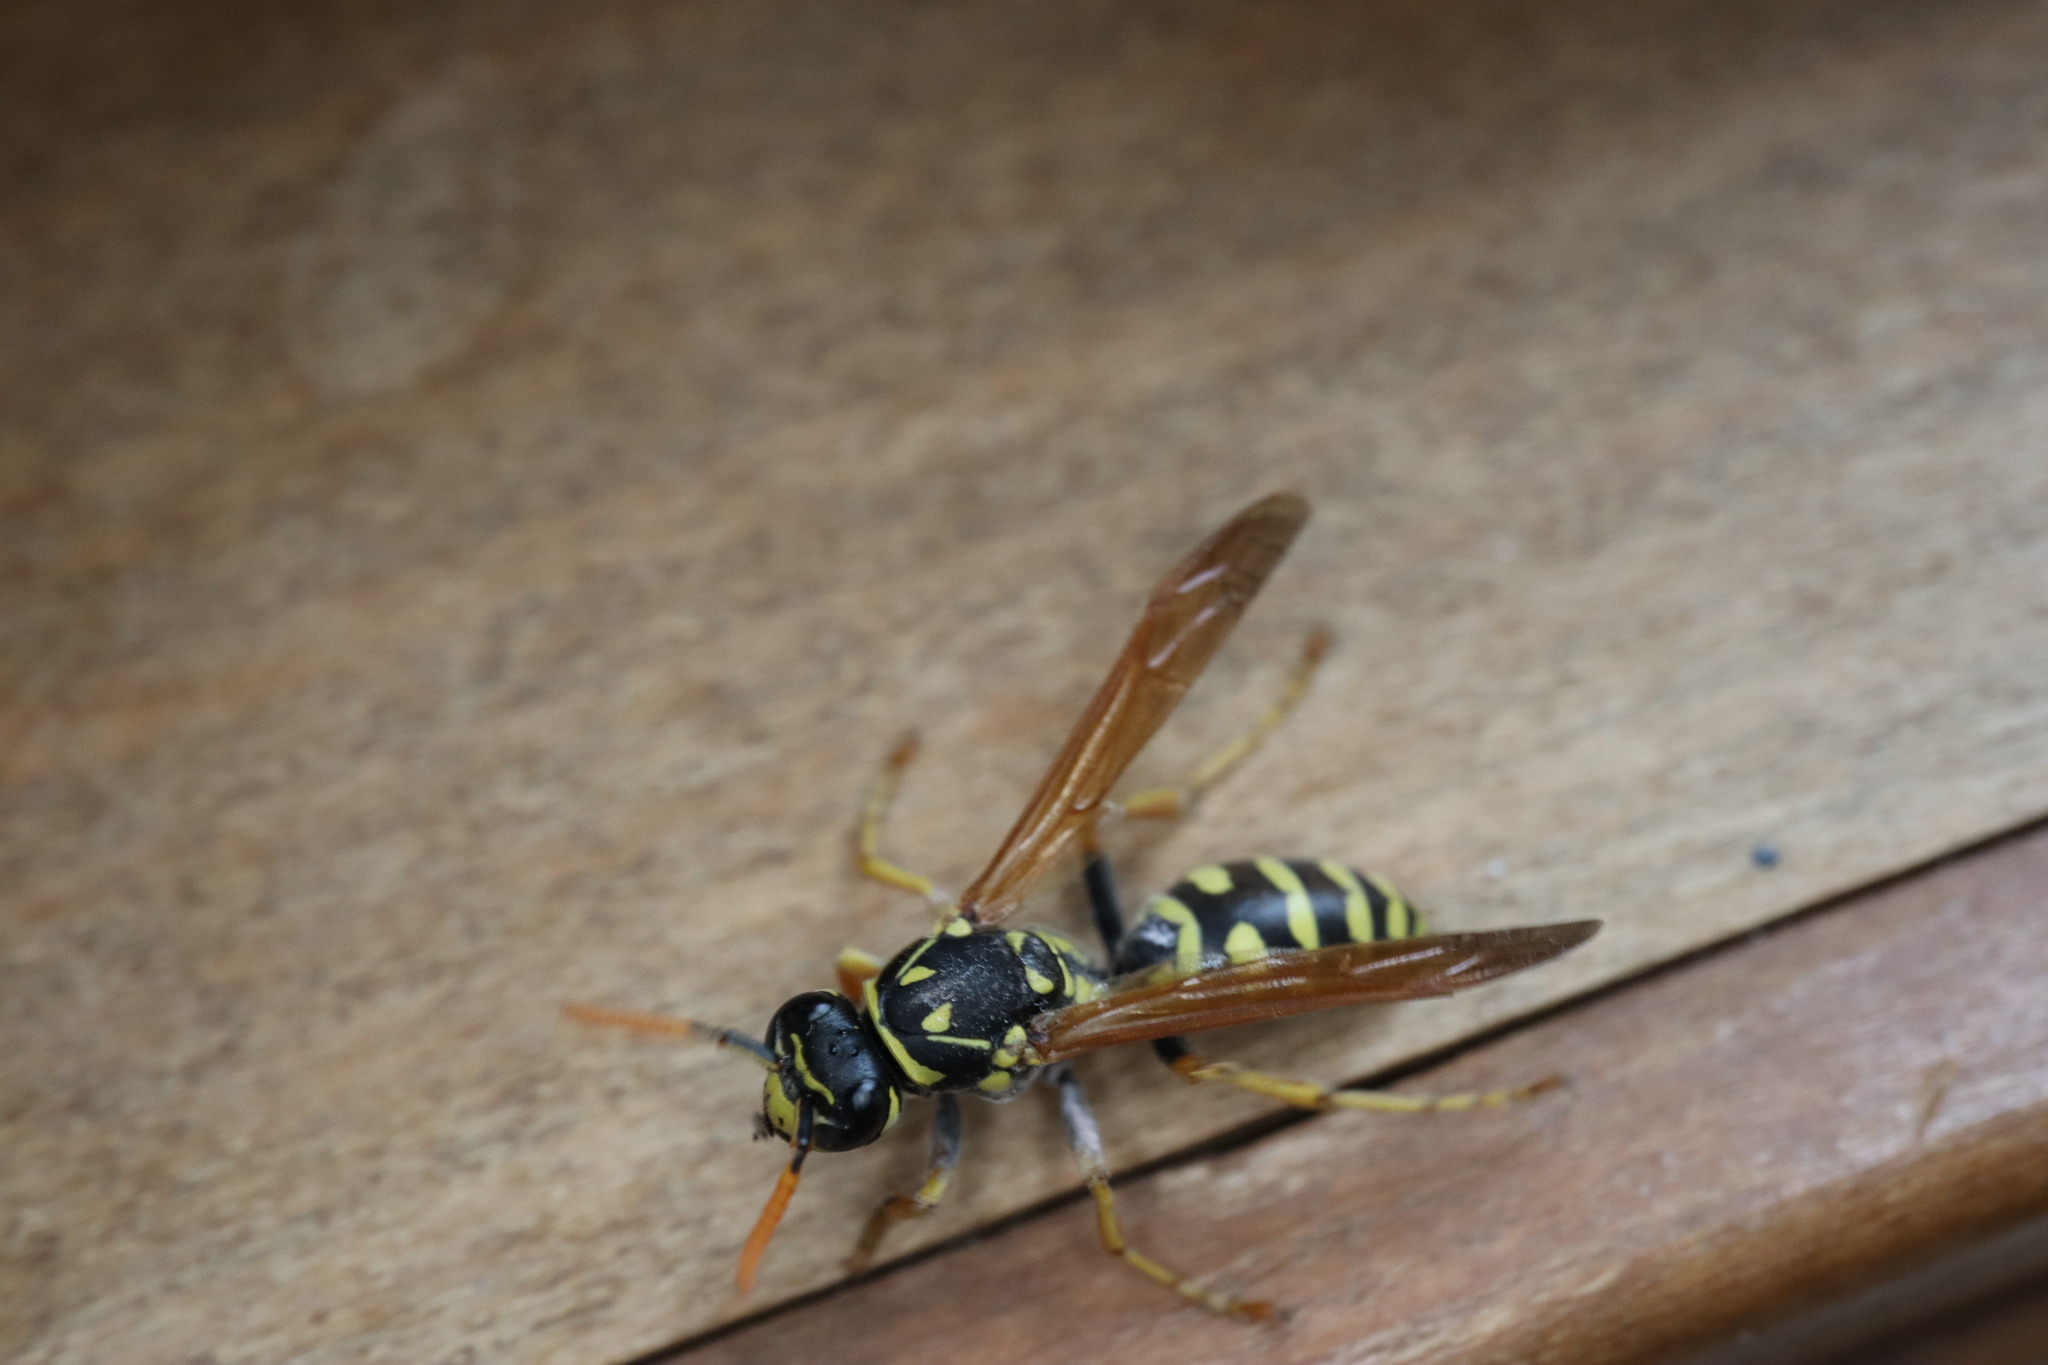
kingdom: Animalia
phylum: Arthropoda
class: Insecta
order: Hymenoptera
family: Eumenidae
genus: Polistes
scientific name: Polistes dominula
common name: Paper wasp
